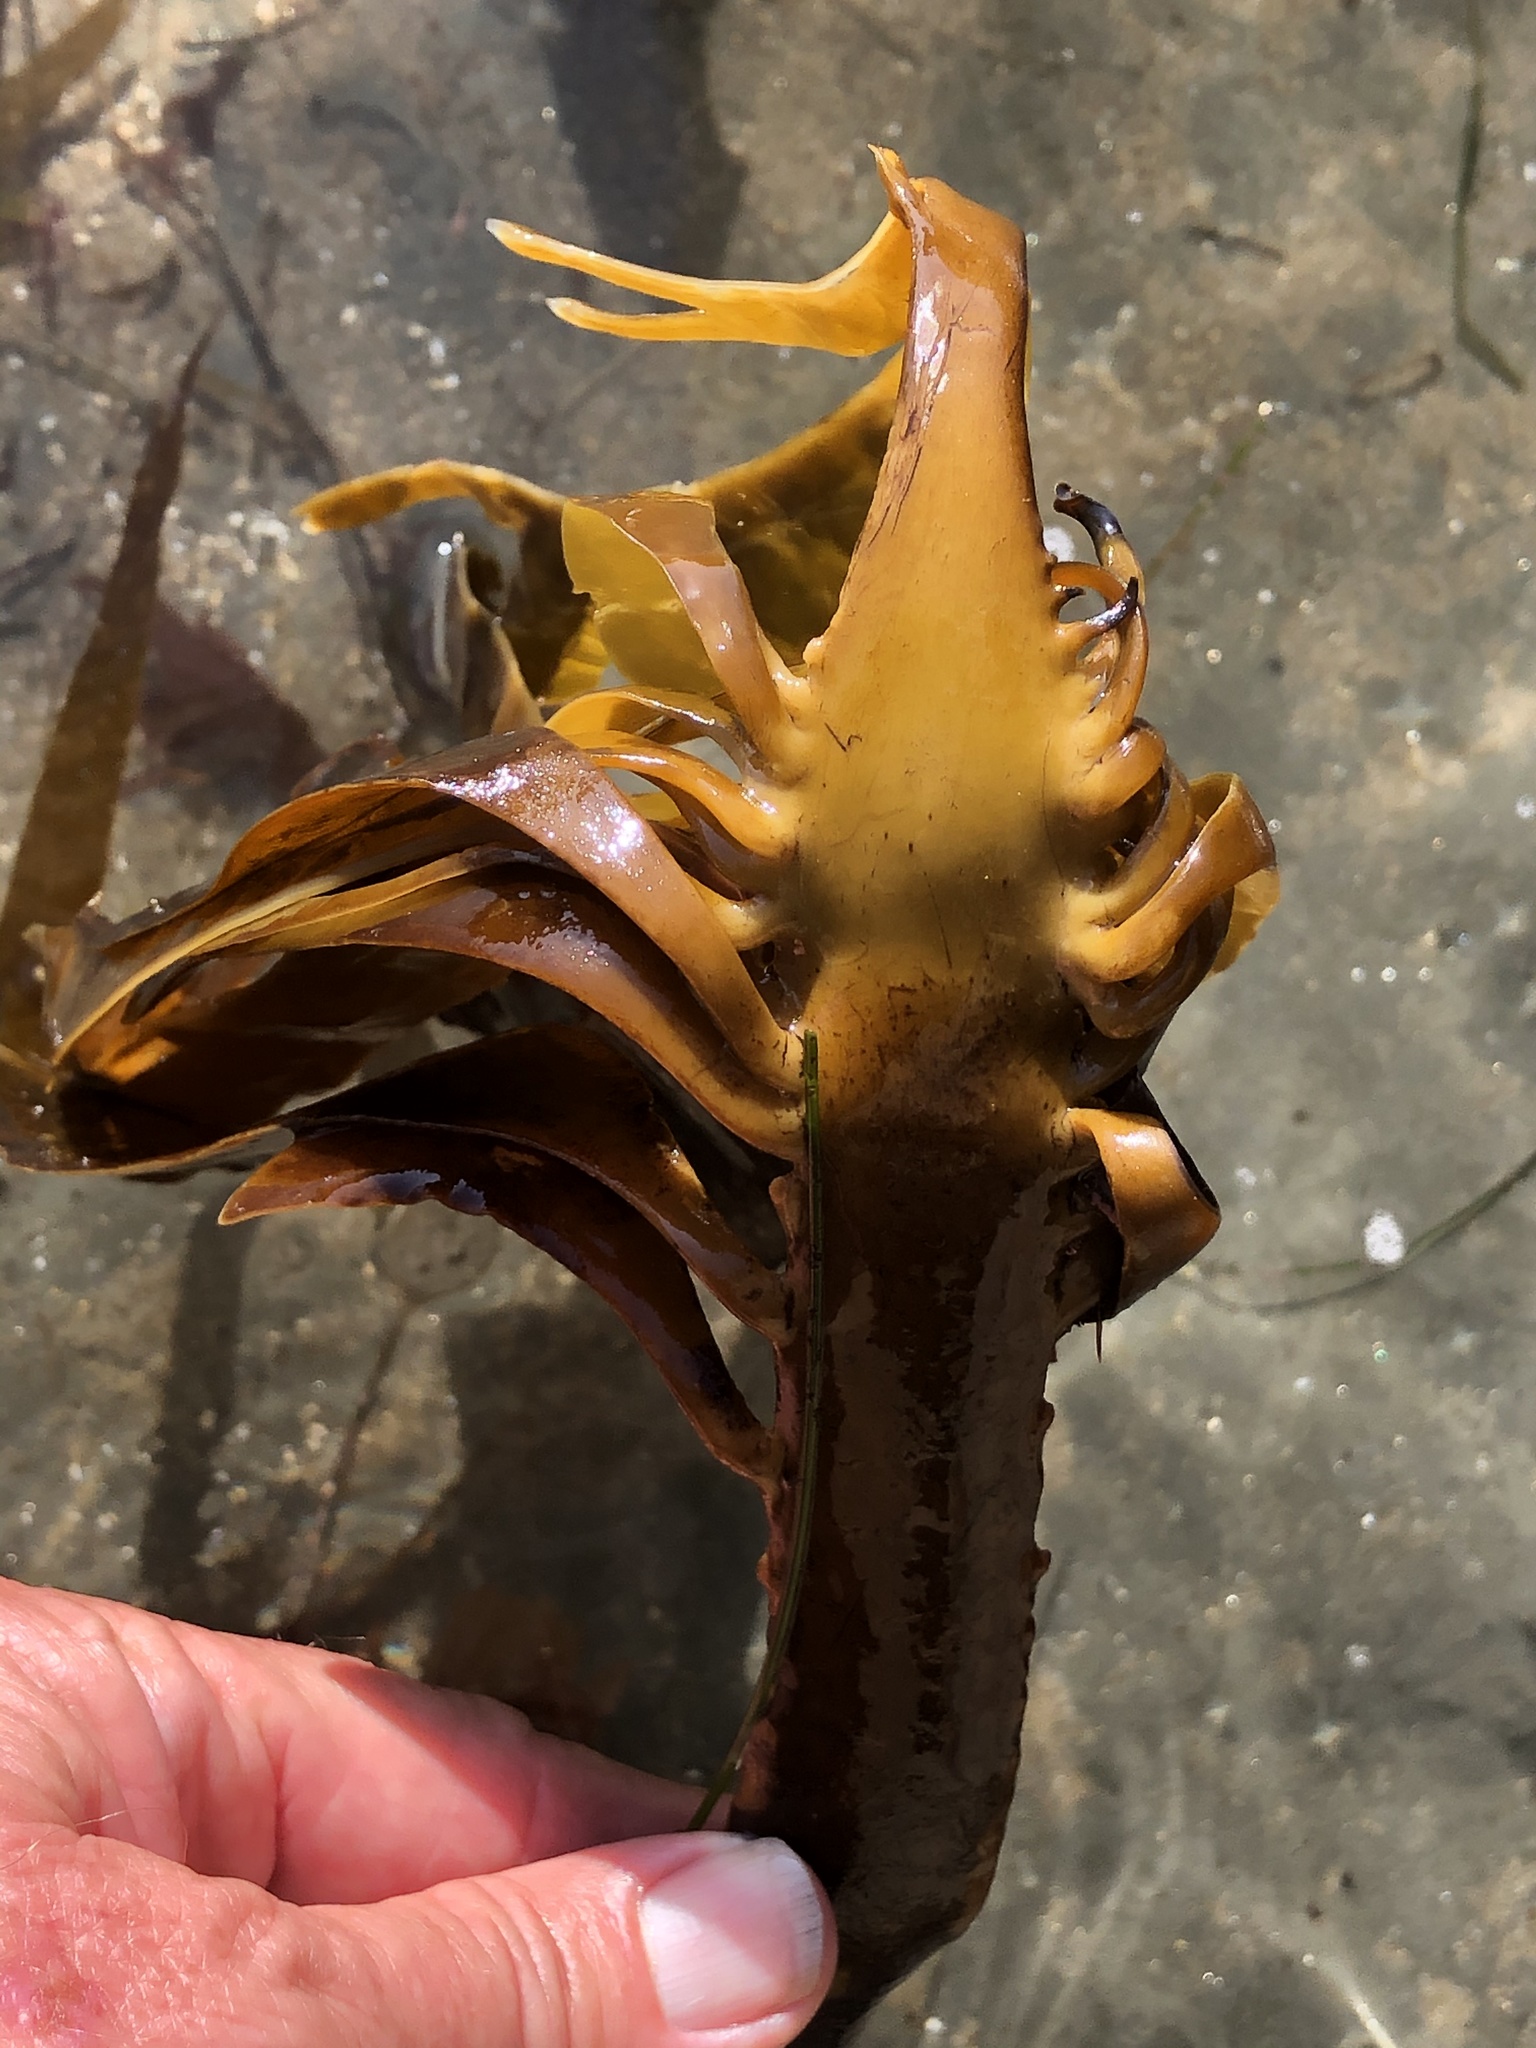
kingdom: Chromista
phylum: Ochrophyta
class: Phaeophyceae
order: Laminariales
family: Alariaceae
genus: Pterygophora
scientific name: Pterygophora californica
